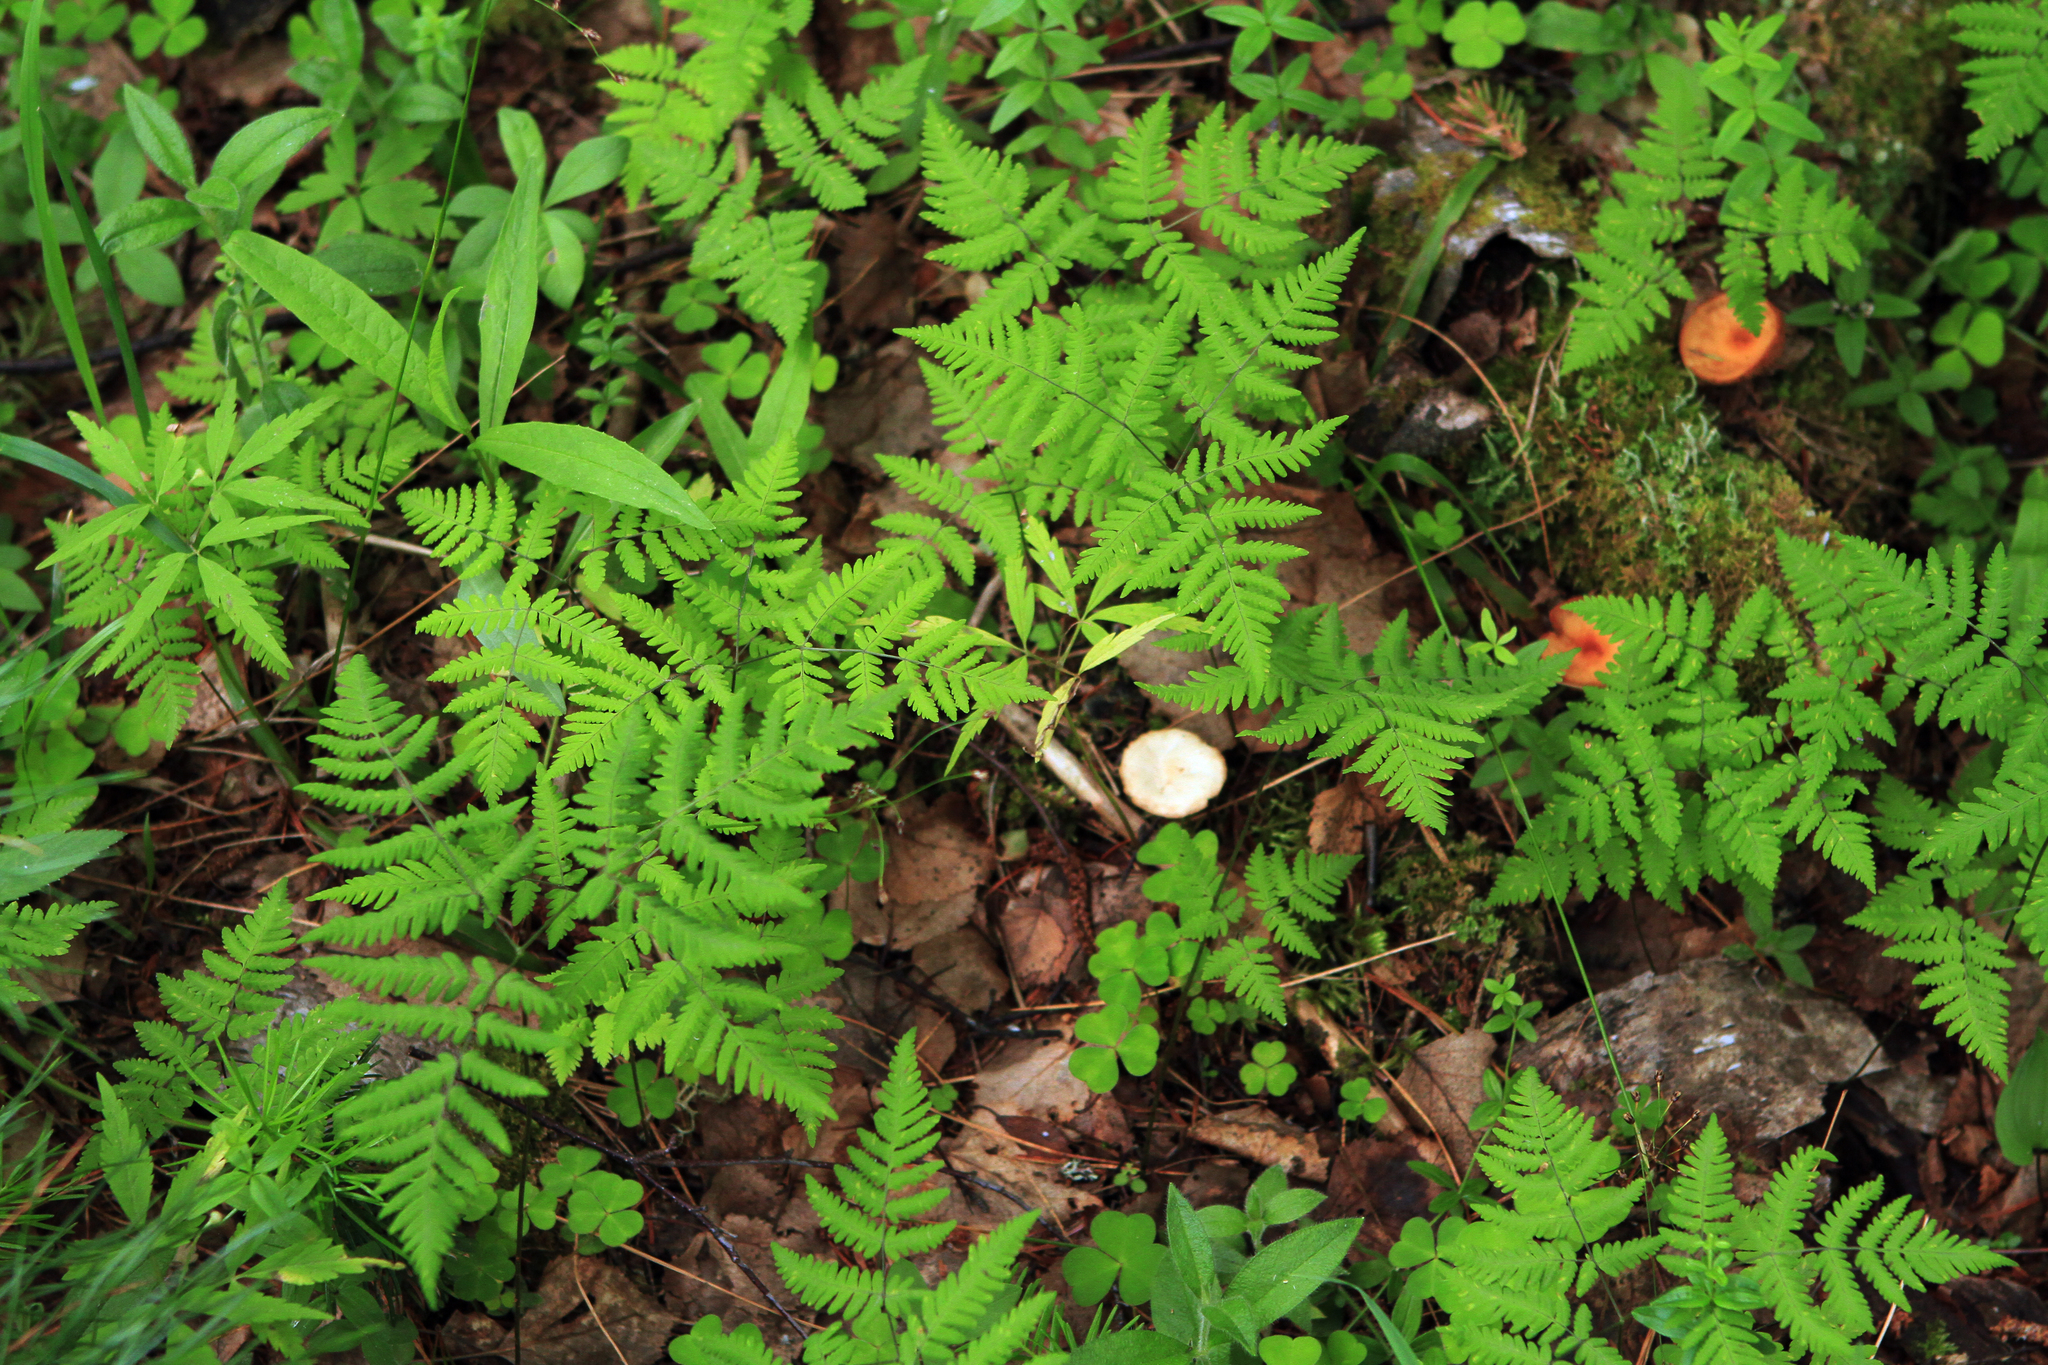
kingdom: Plantae
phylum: Tracheophyta
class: Polypodiopsida
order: Polypodiales
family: Cystopteridaceae
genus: Gymnocarpium
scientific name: Gymnocarpium dryopteris
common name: Oak fern
